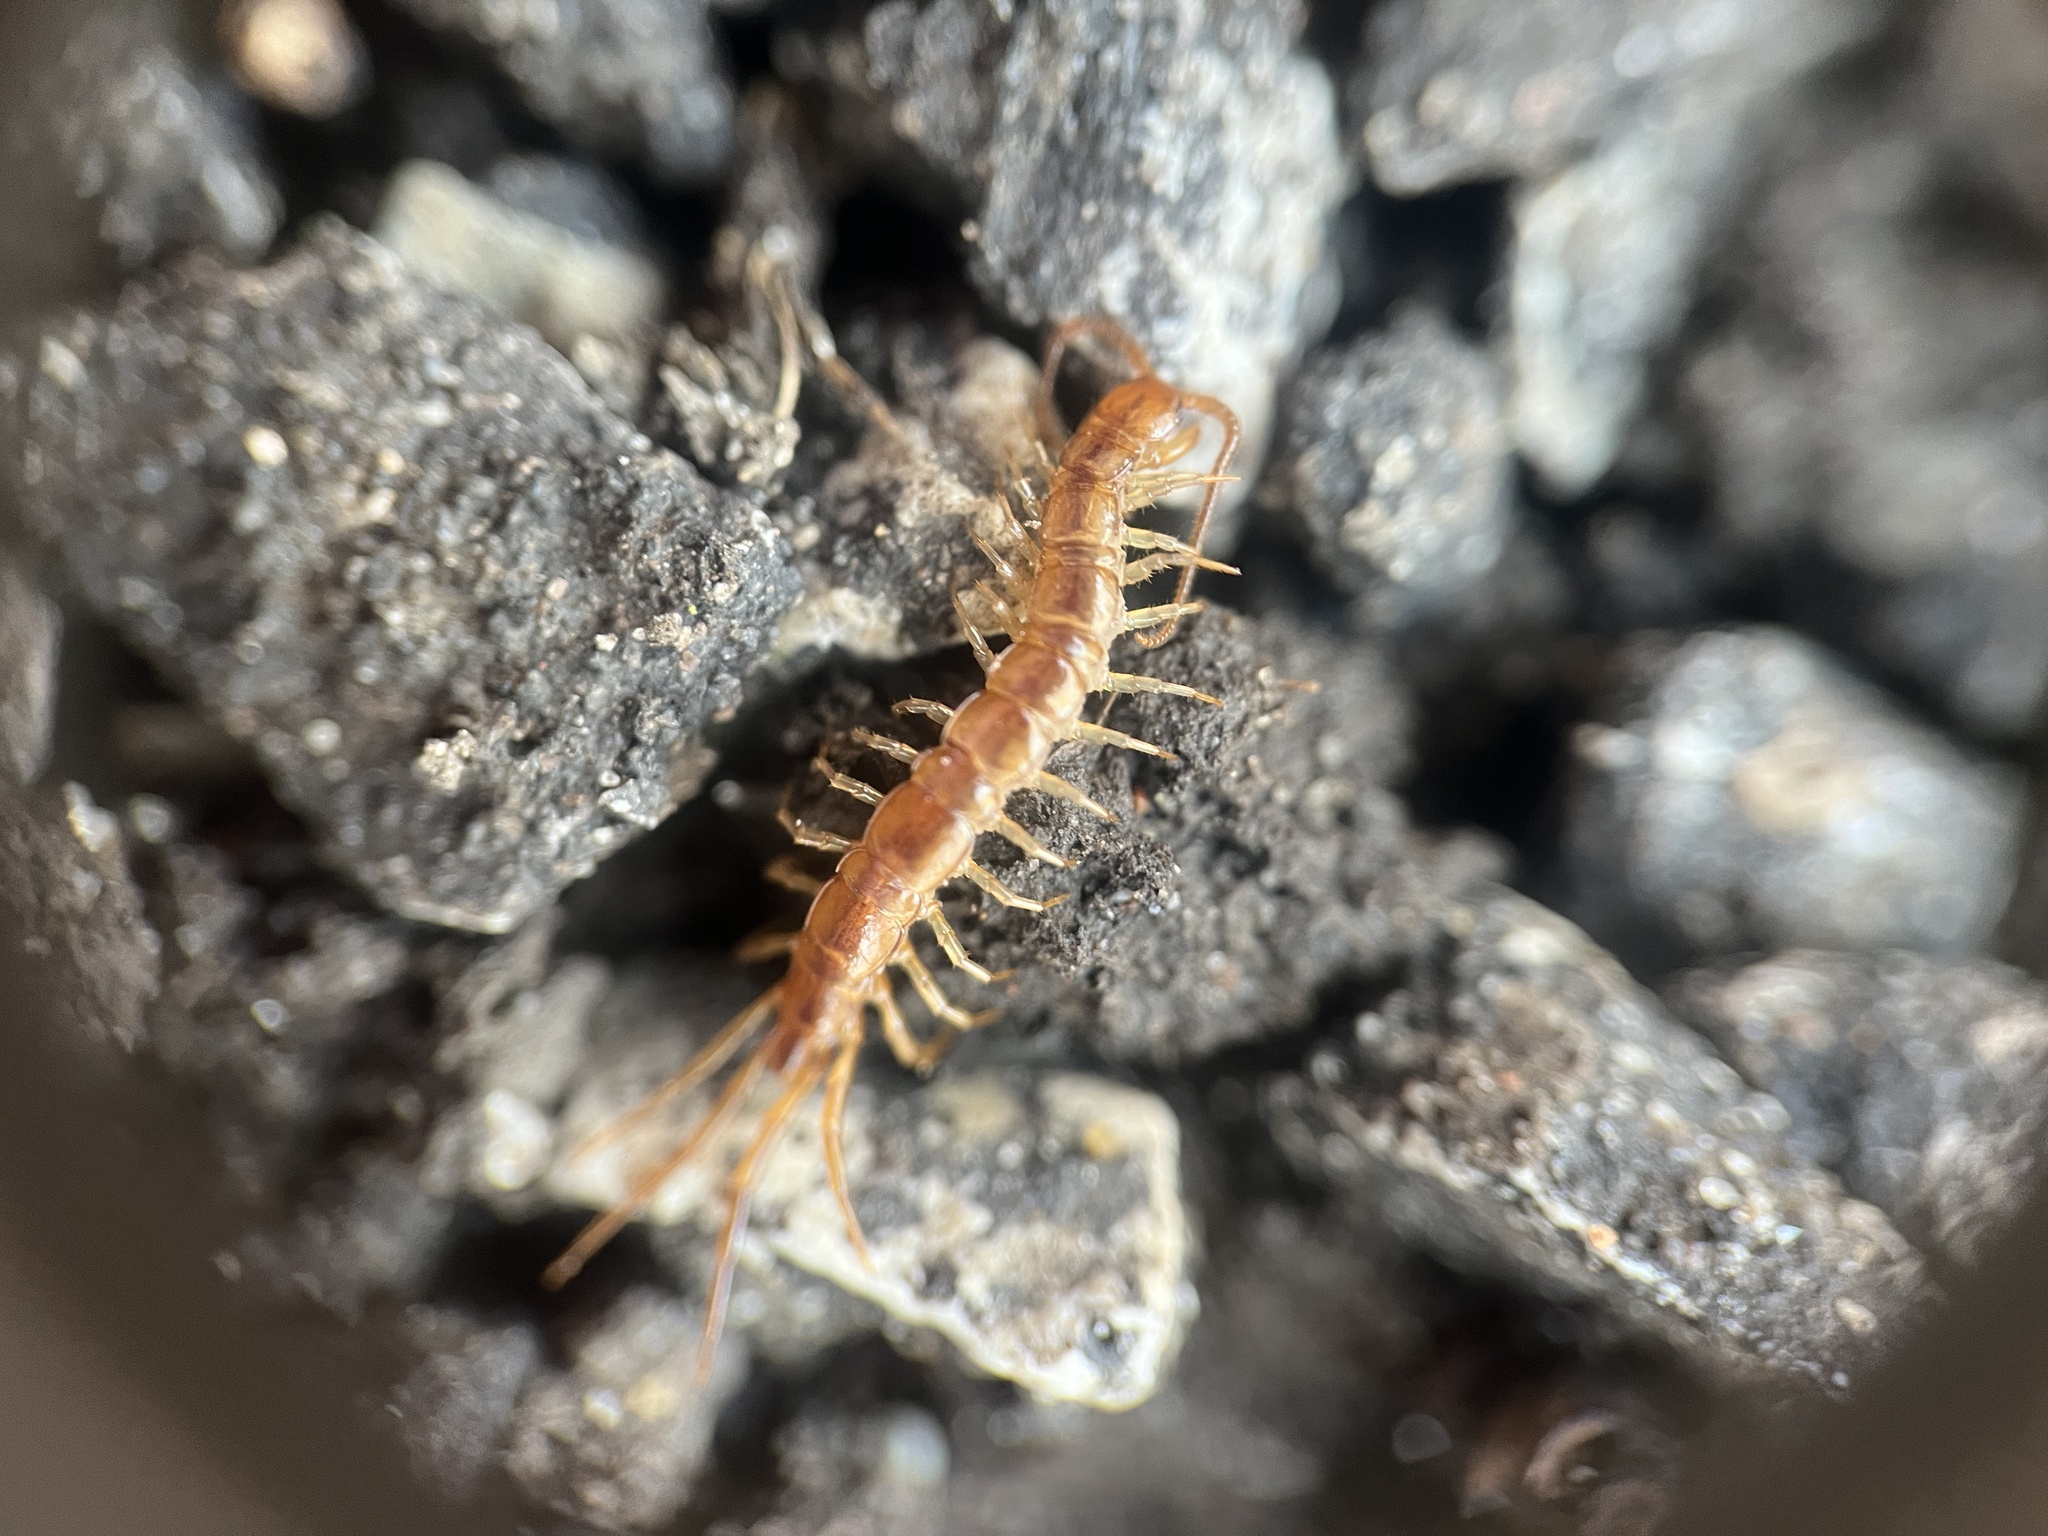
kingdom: Animalia
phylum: Arthropoda
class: Chilopoda
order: Lithobiomorpha
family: Lithobiidae
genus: Lithobius
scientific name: Lithobius forficatus
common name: Centipede
